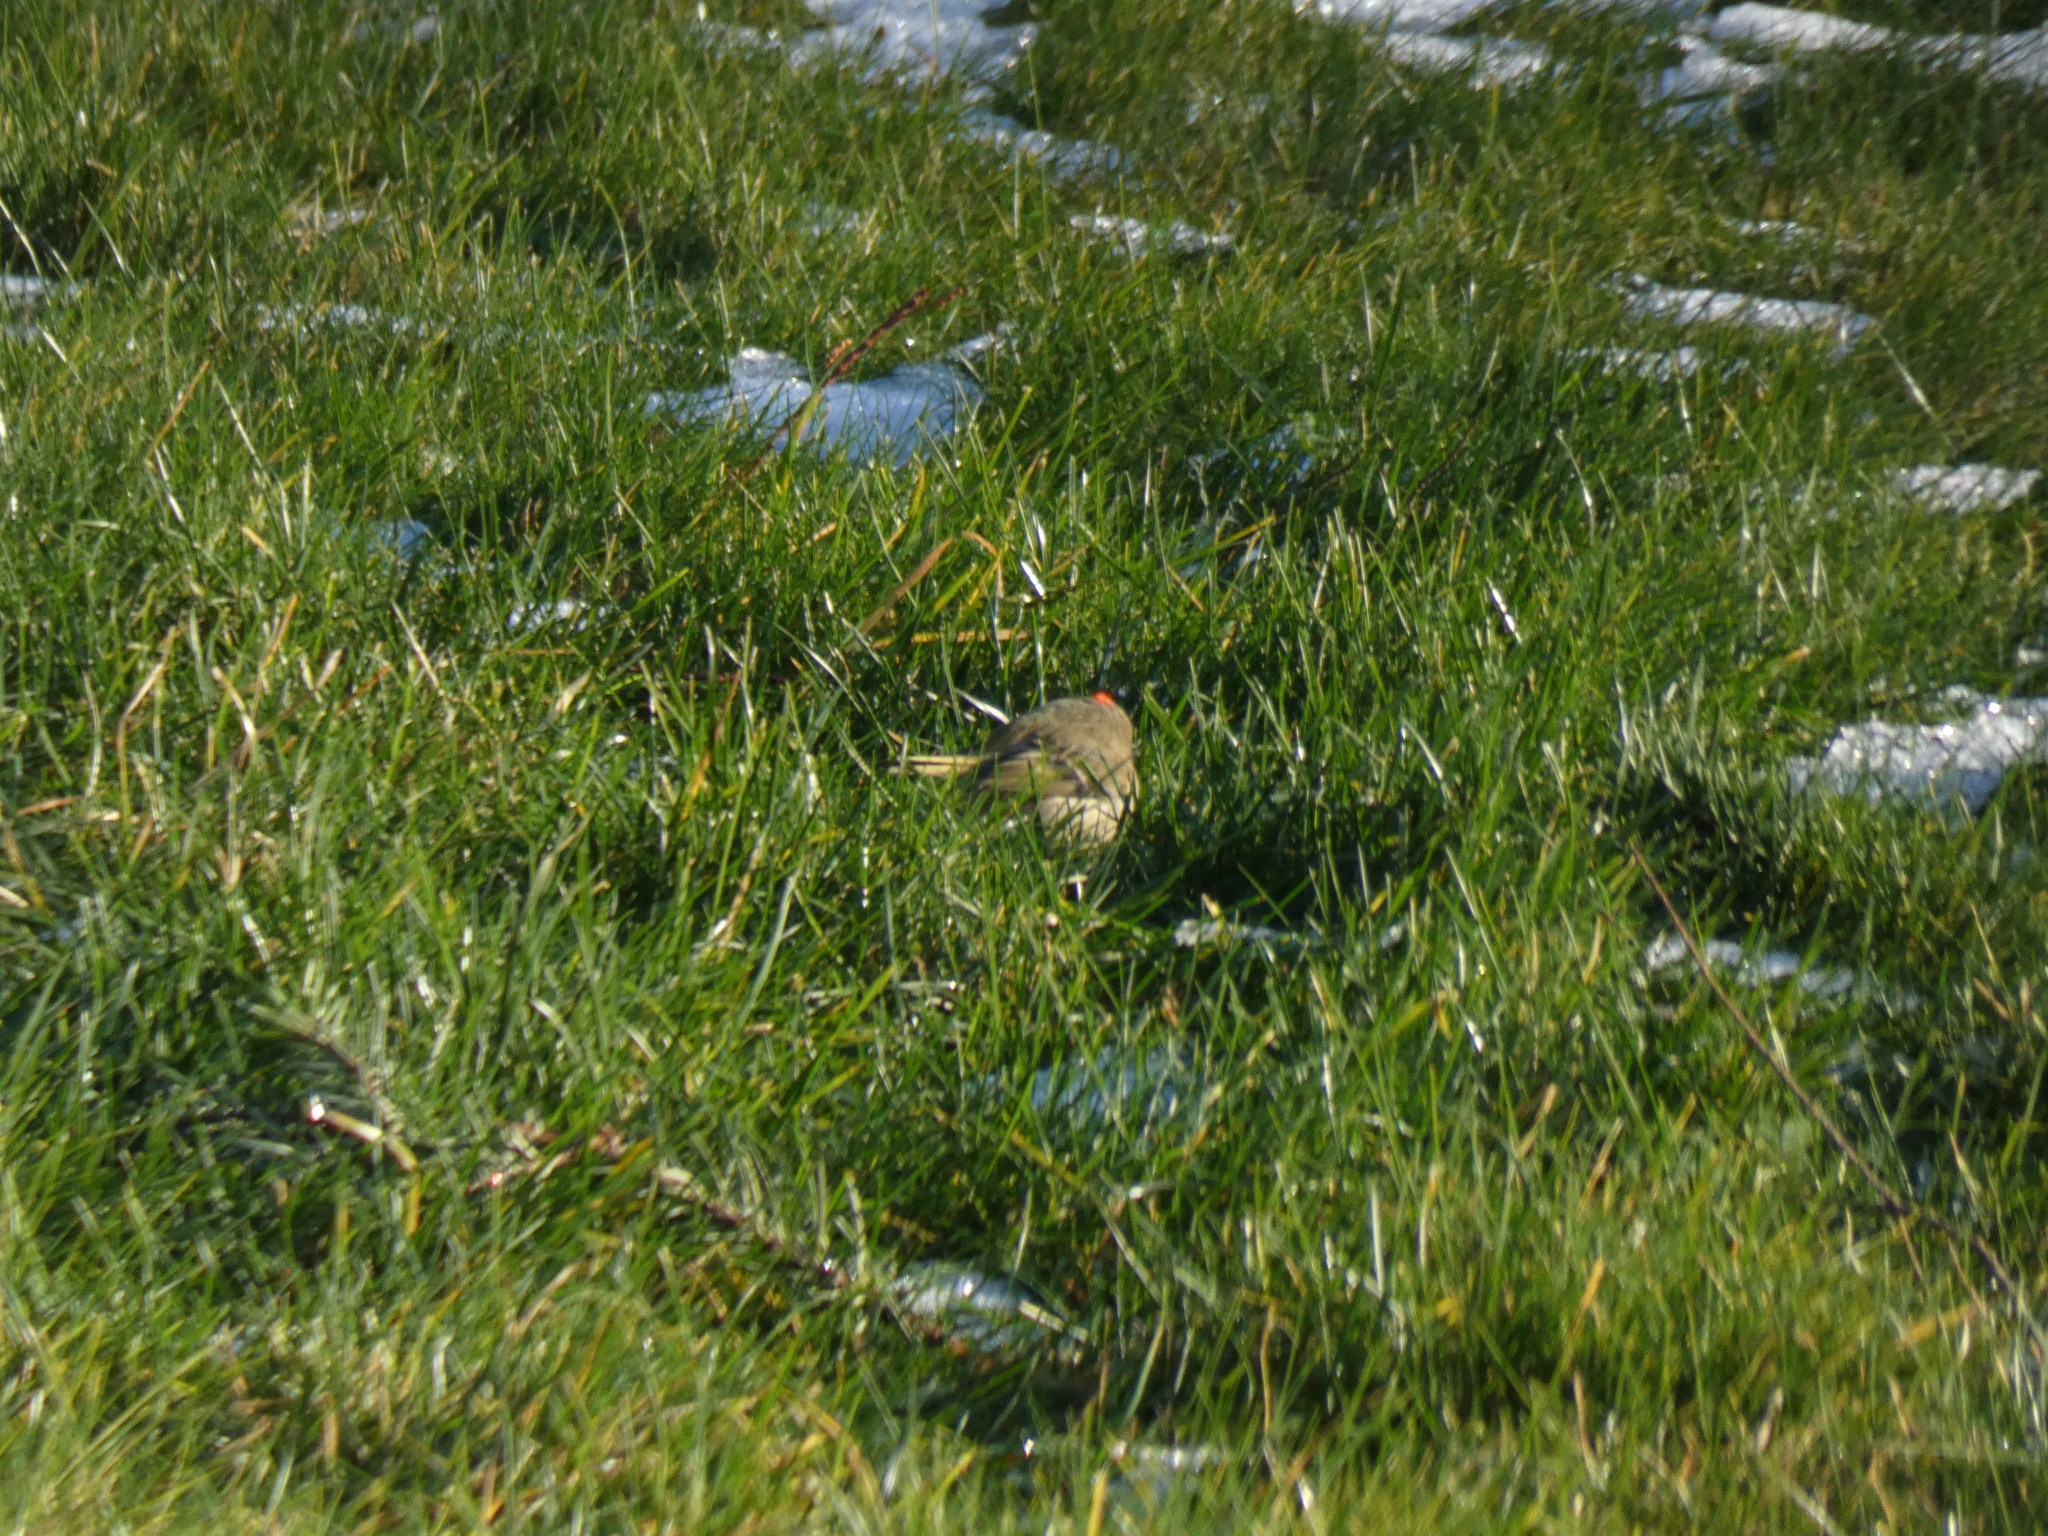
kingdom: Animalia
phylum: Chordata
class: Aves
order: Passeriformes
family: Regulidae
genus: Regulus
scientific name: Regulus calendula
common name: Ruby-crowned kinglet
